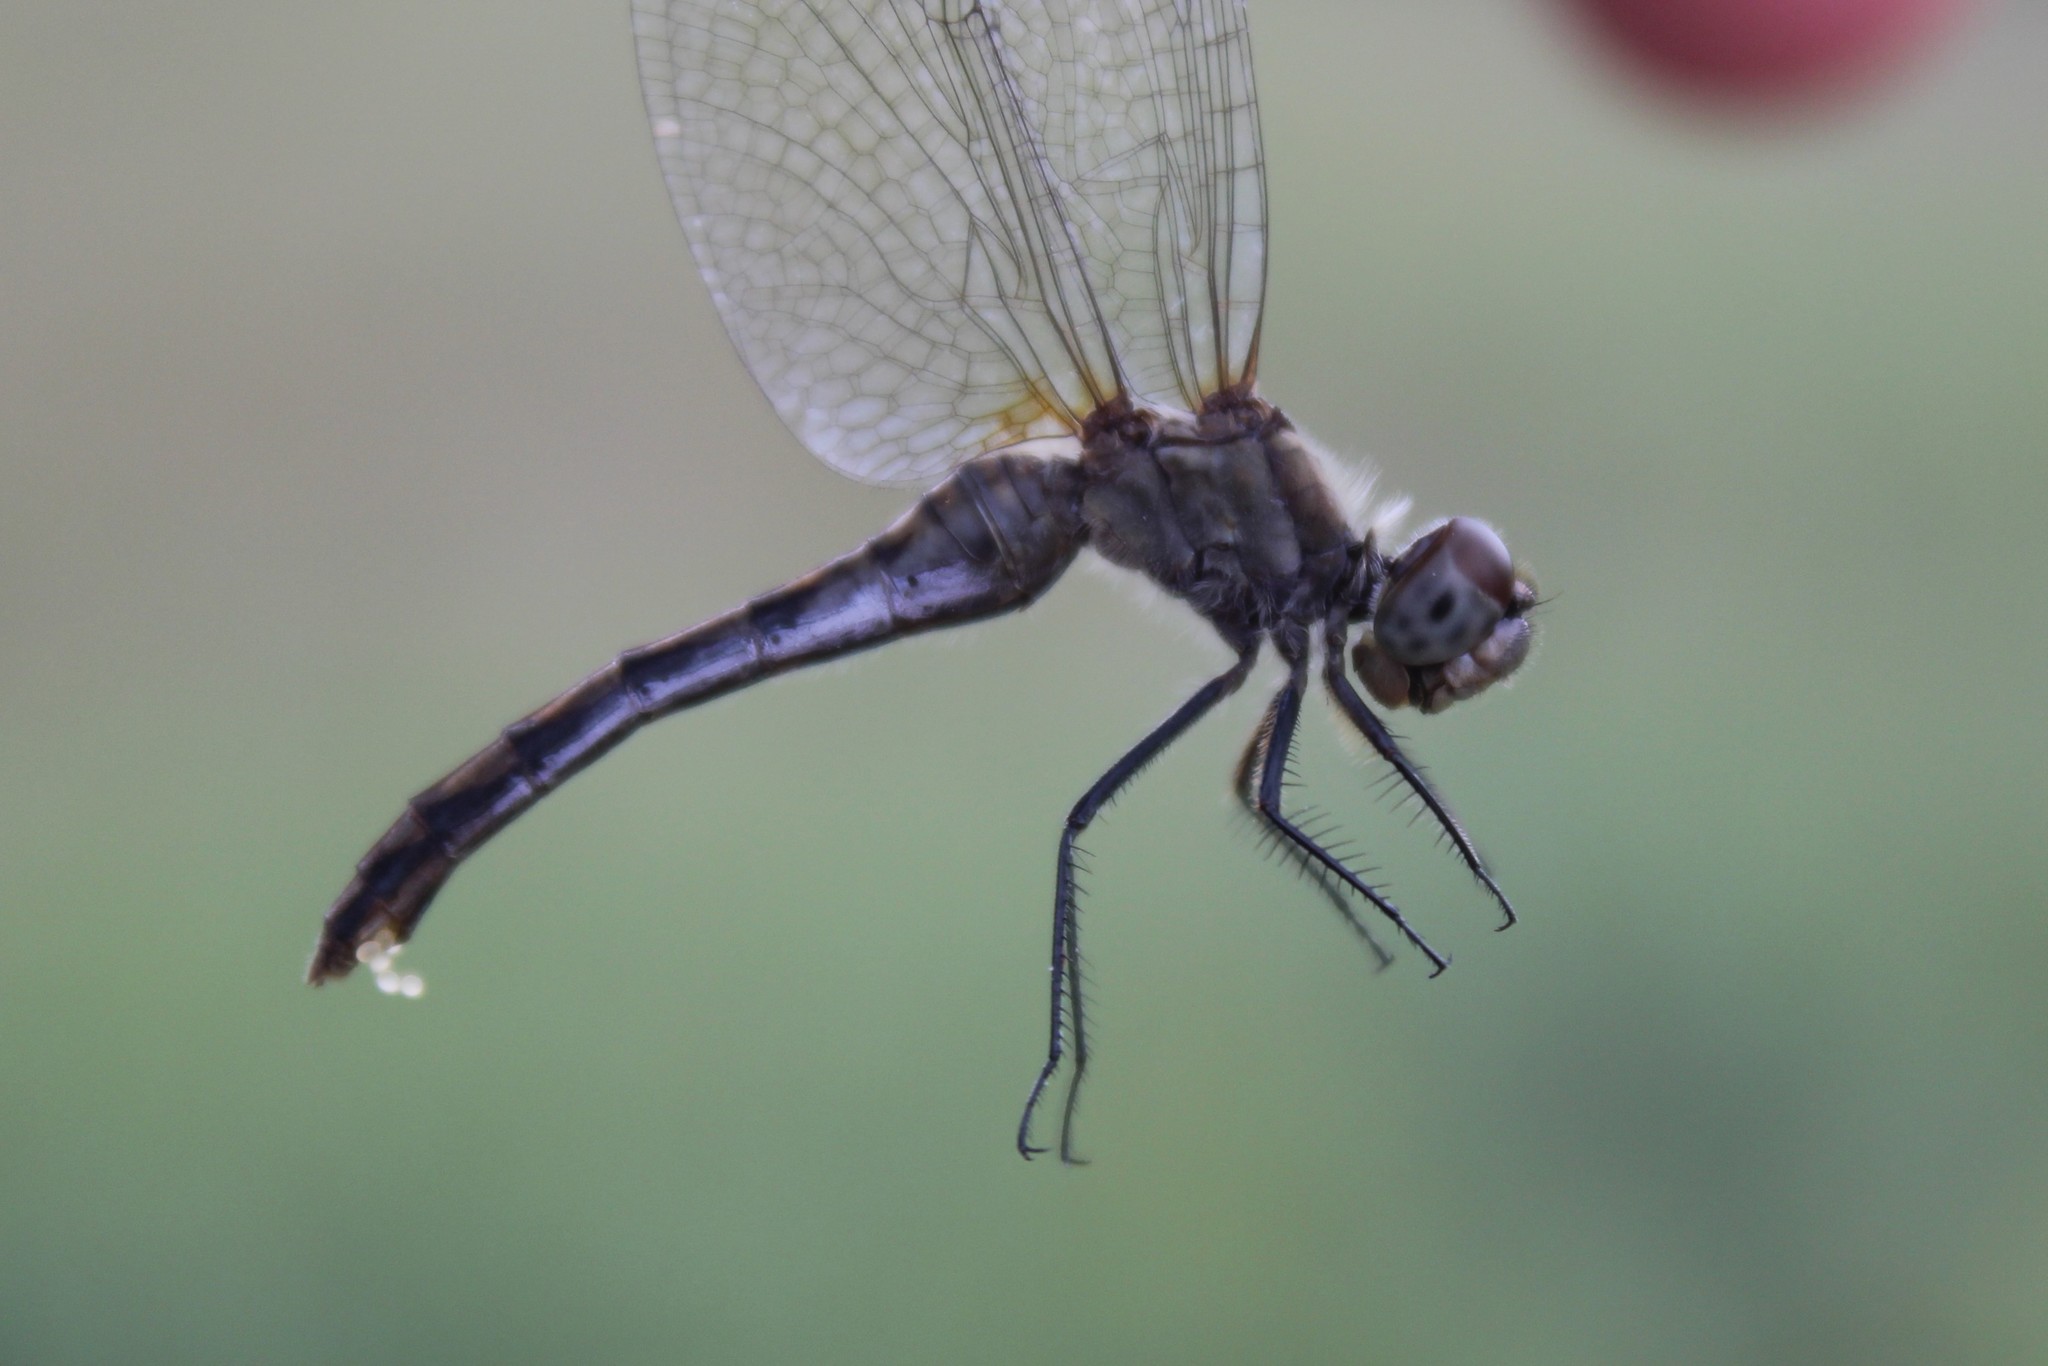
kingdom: Animalia
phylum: Arthropoda
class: Insecta
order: Odonata
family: Libellulidae
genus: Sympetrum
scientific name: Sympetrum danae
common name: Black darter
